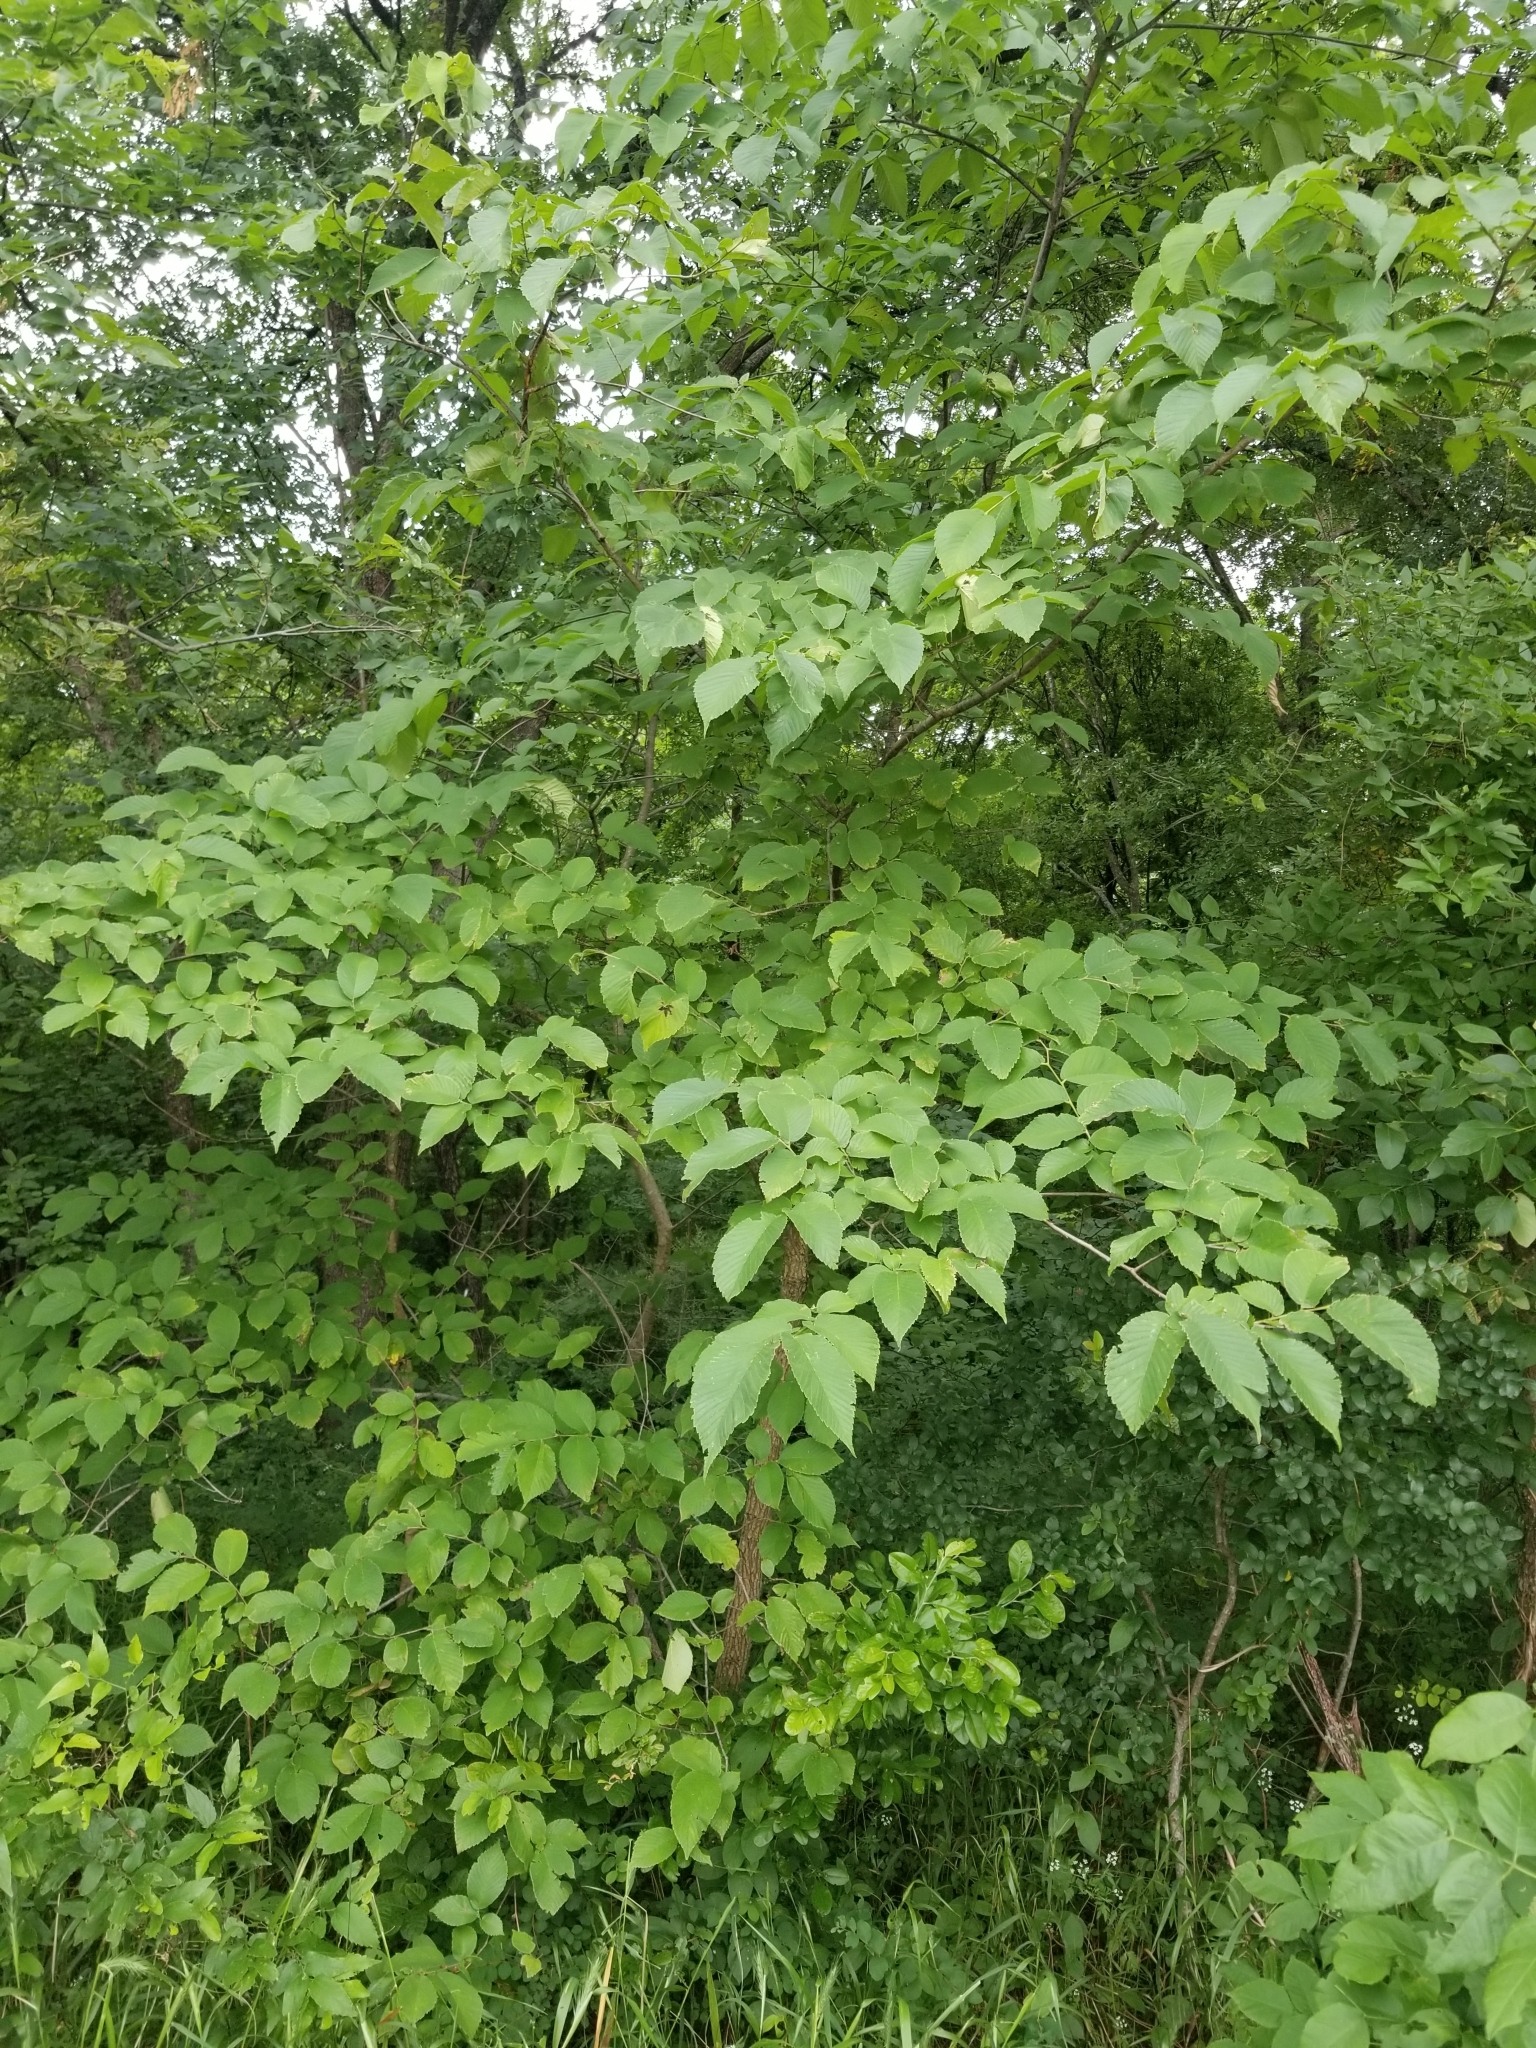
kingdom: Plantae
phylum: Tracheophyta
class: Magnoliopsida
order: Rosales
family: Ulmaceae
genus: Ulmus
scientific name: Ulmus crassifolia
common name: Basket elm
